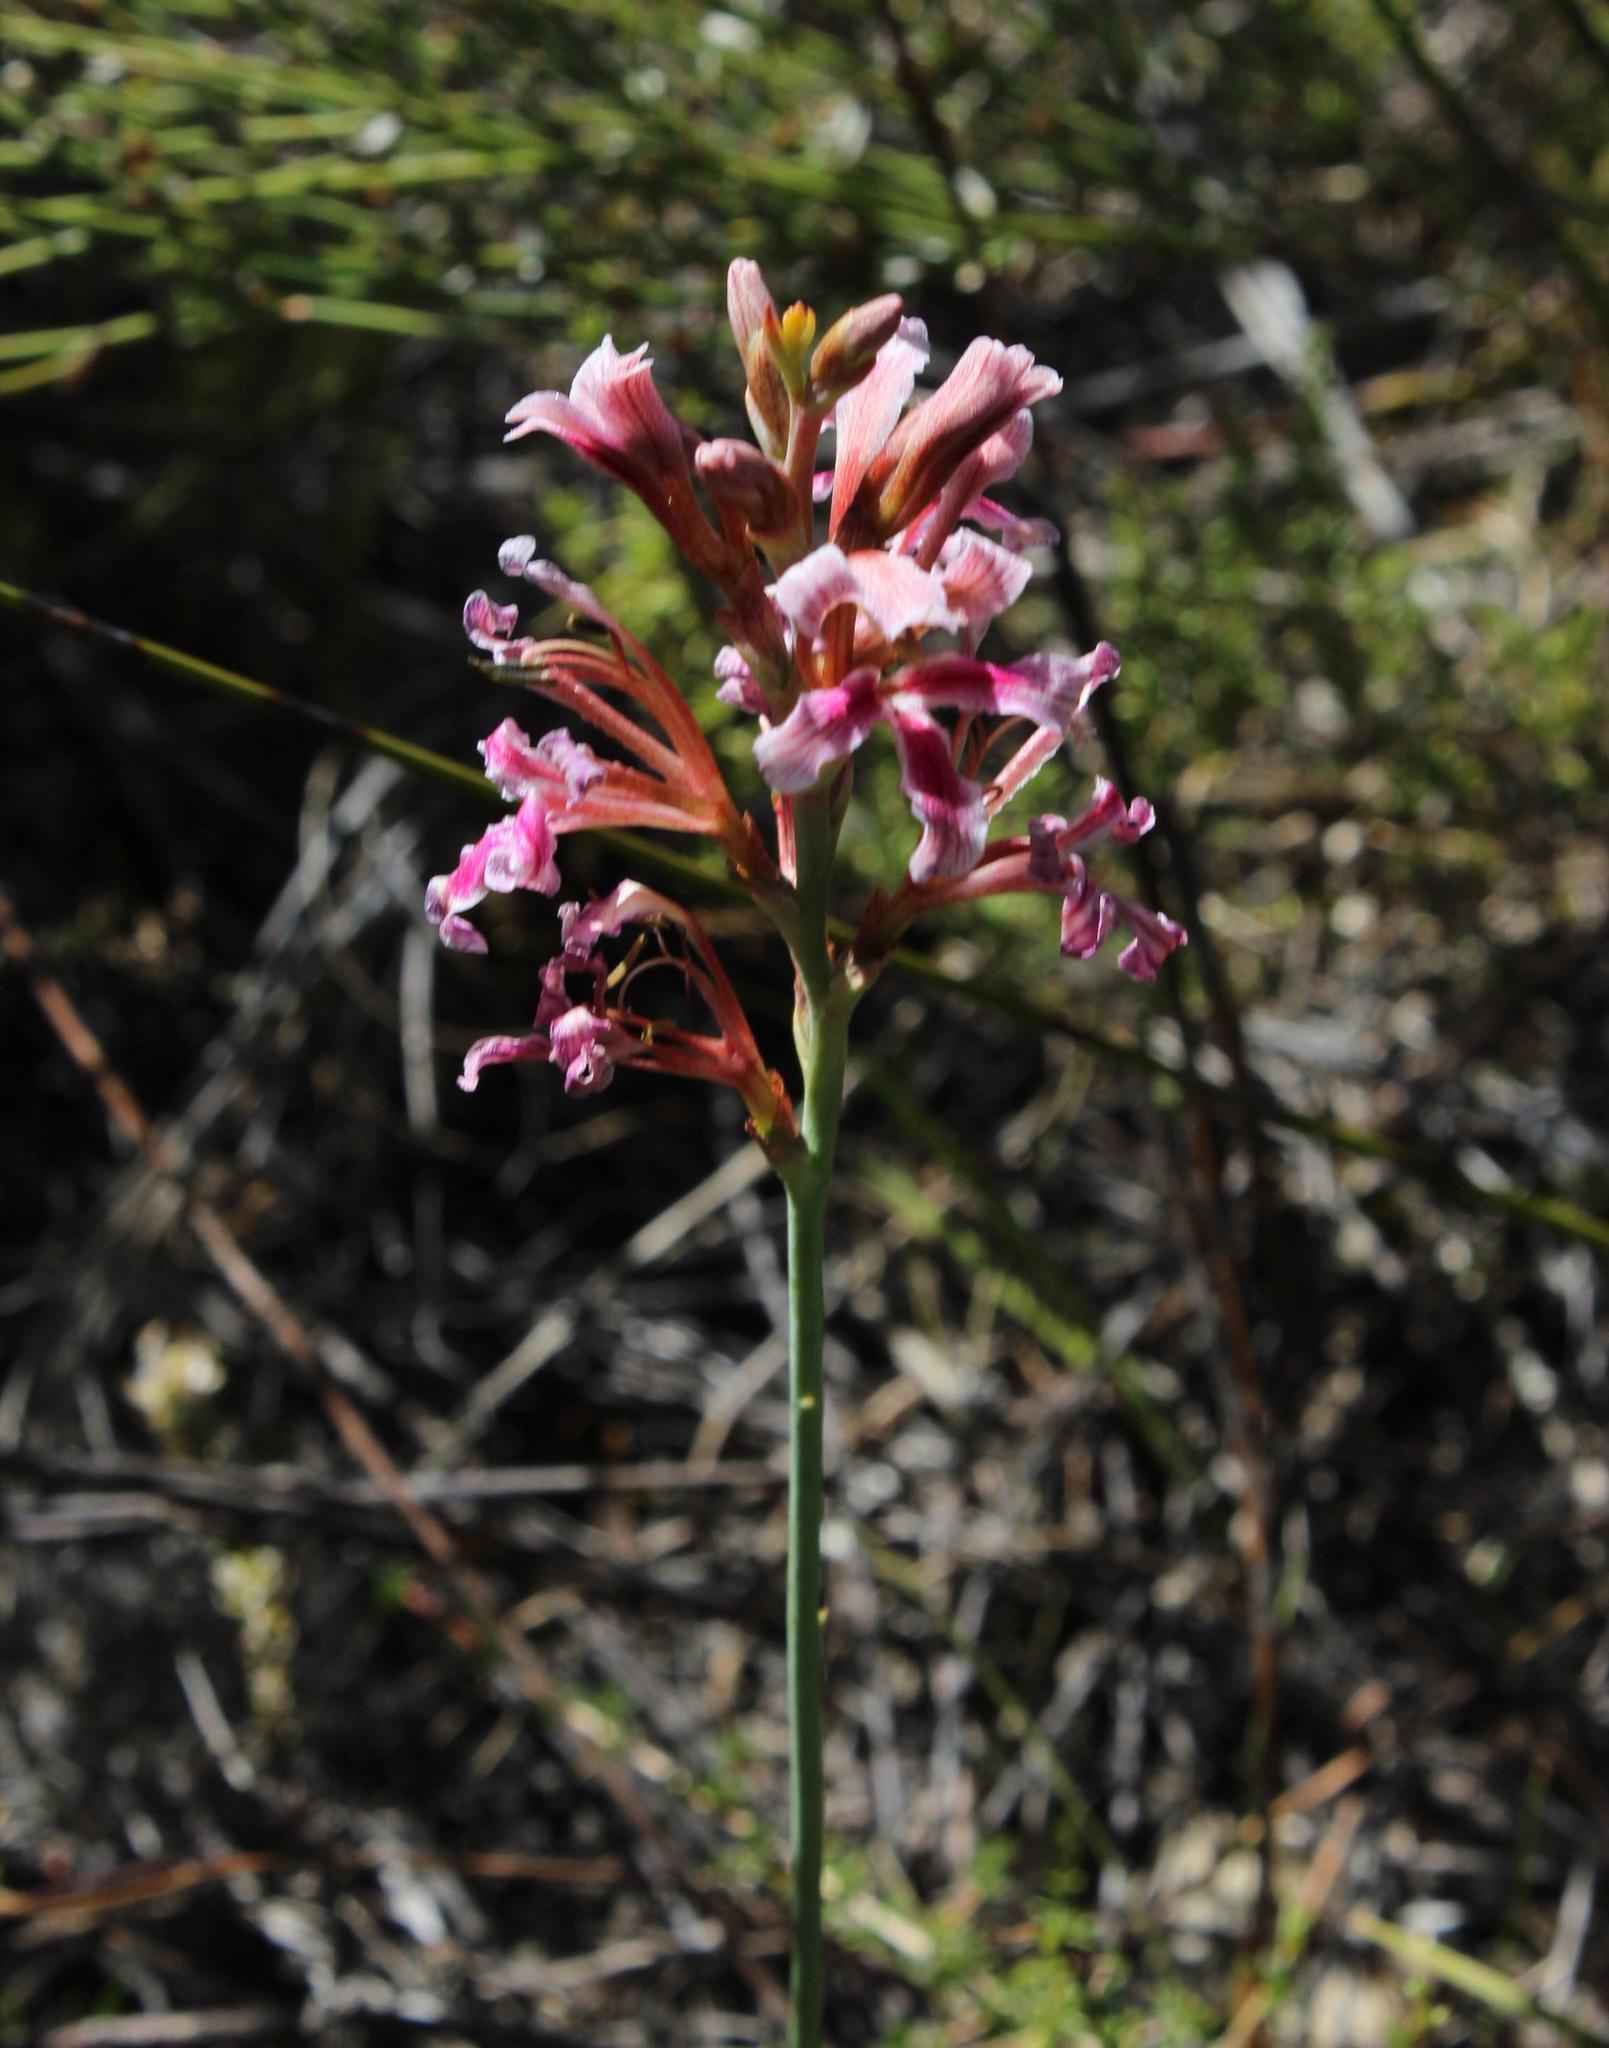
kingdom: Plantae
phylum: Tracheophyta
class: Liliopsida
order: Asparagales
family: Iridaceae
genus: Tritoniopsis
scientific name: Tritoniopsis dodii
